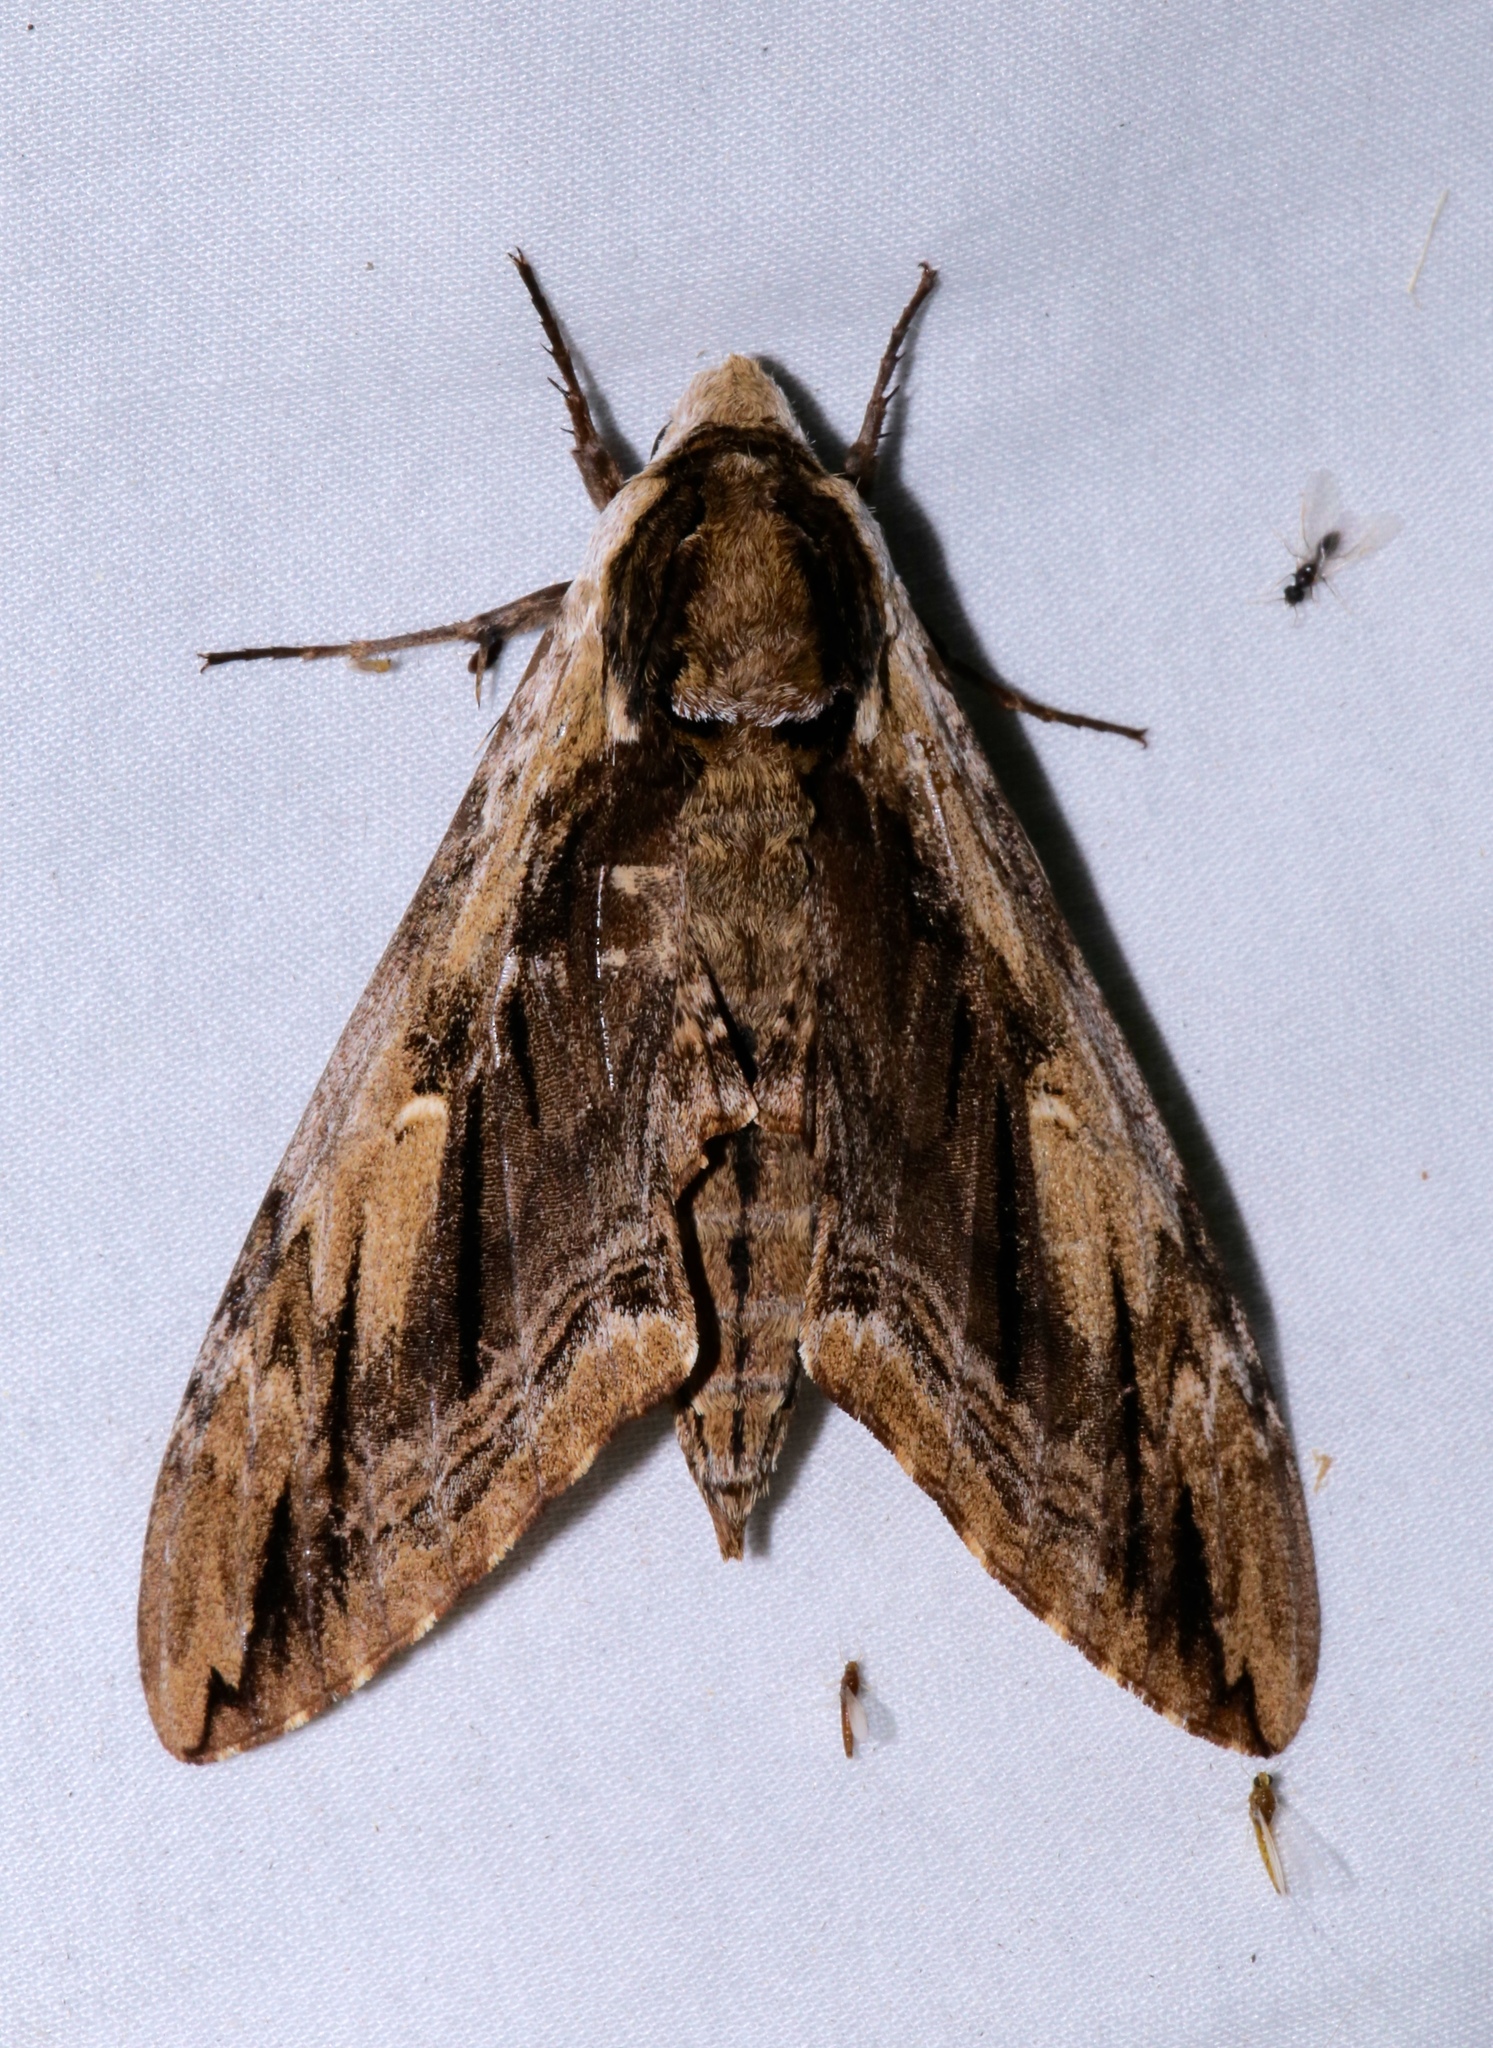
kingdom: Animalia
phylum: Arthropoda
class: Insecta
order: Lepidoptera
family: Sphingidae
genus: Ceratomia
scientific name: Ceratomia amyntor
